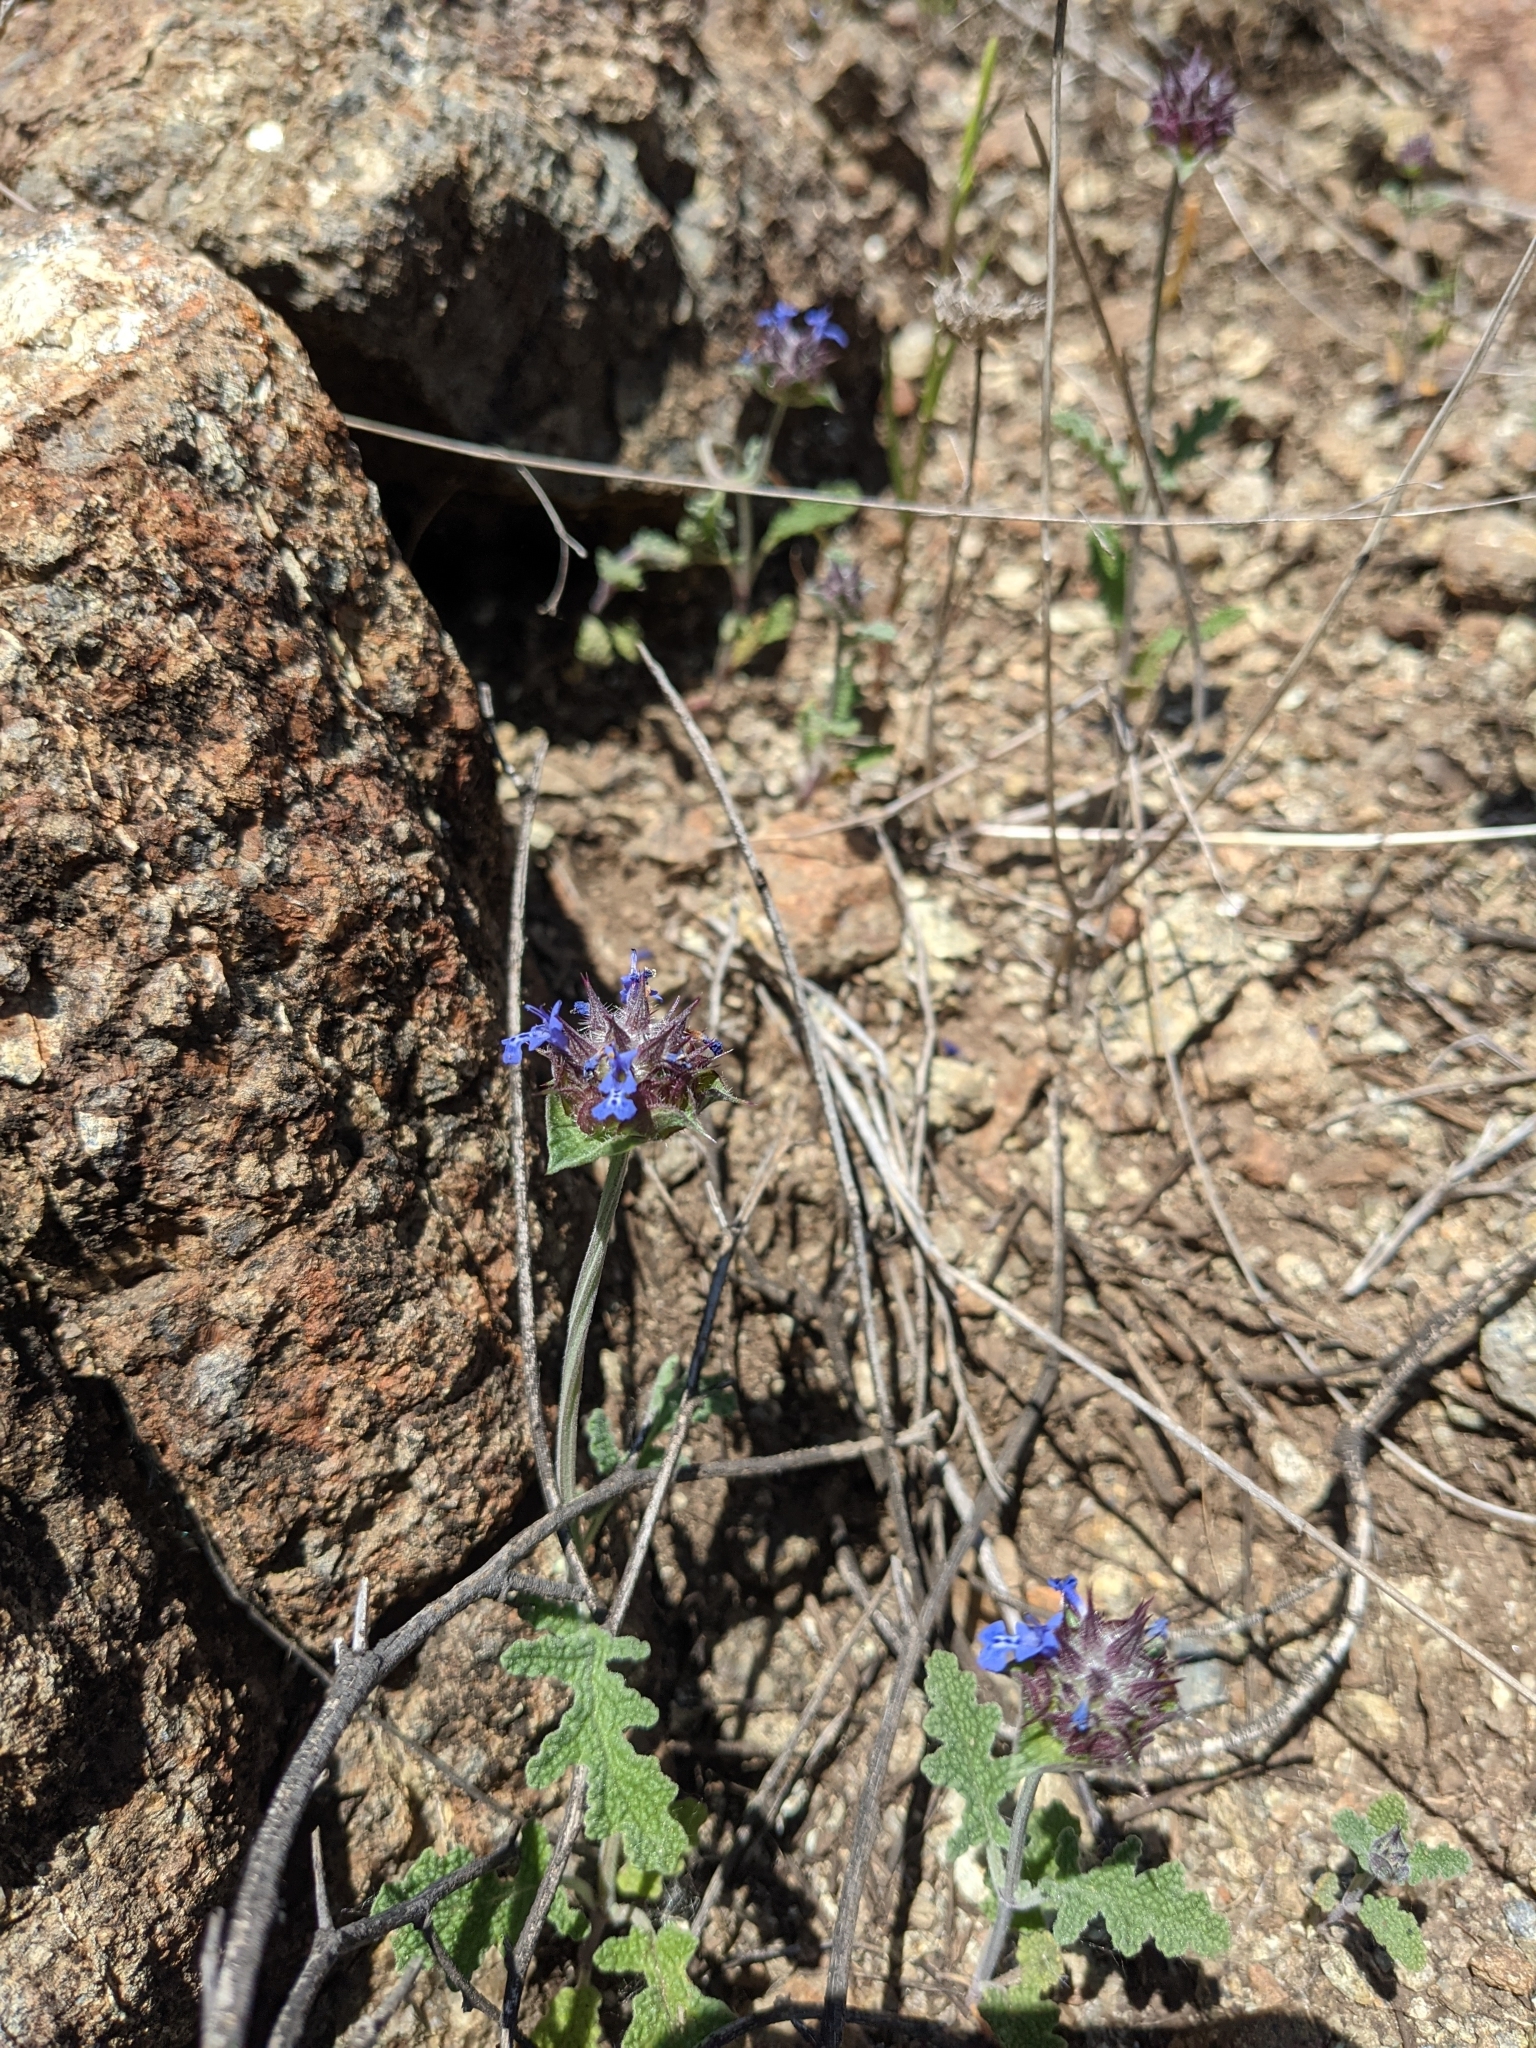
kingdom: Plantae
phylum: Tracheophyta
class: Magnoliopsida
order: Lamiales
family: Lamiaceae
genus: Salvia
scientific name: Salvia columbariae
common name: Chia
